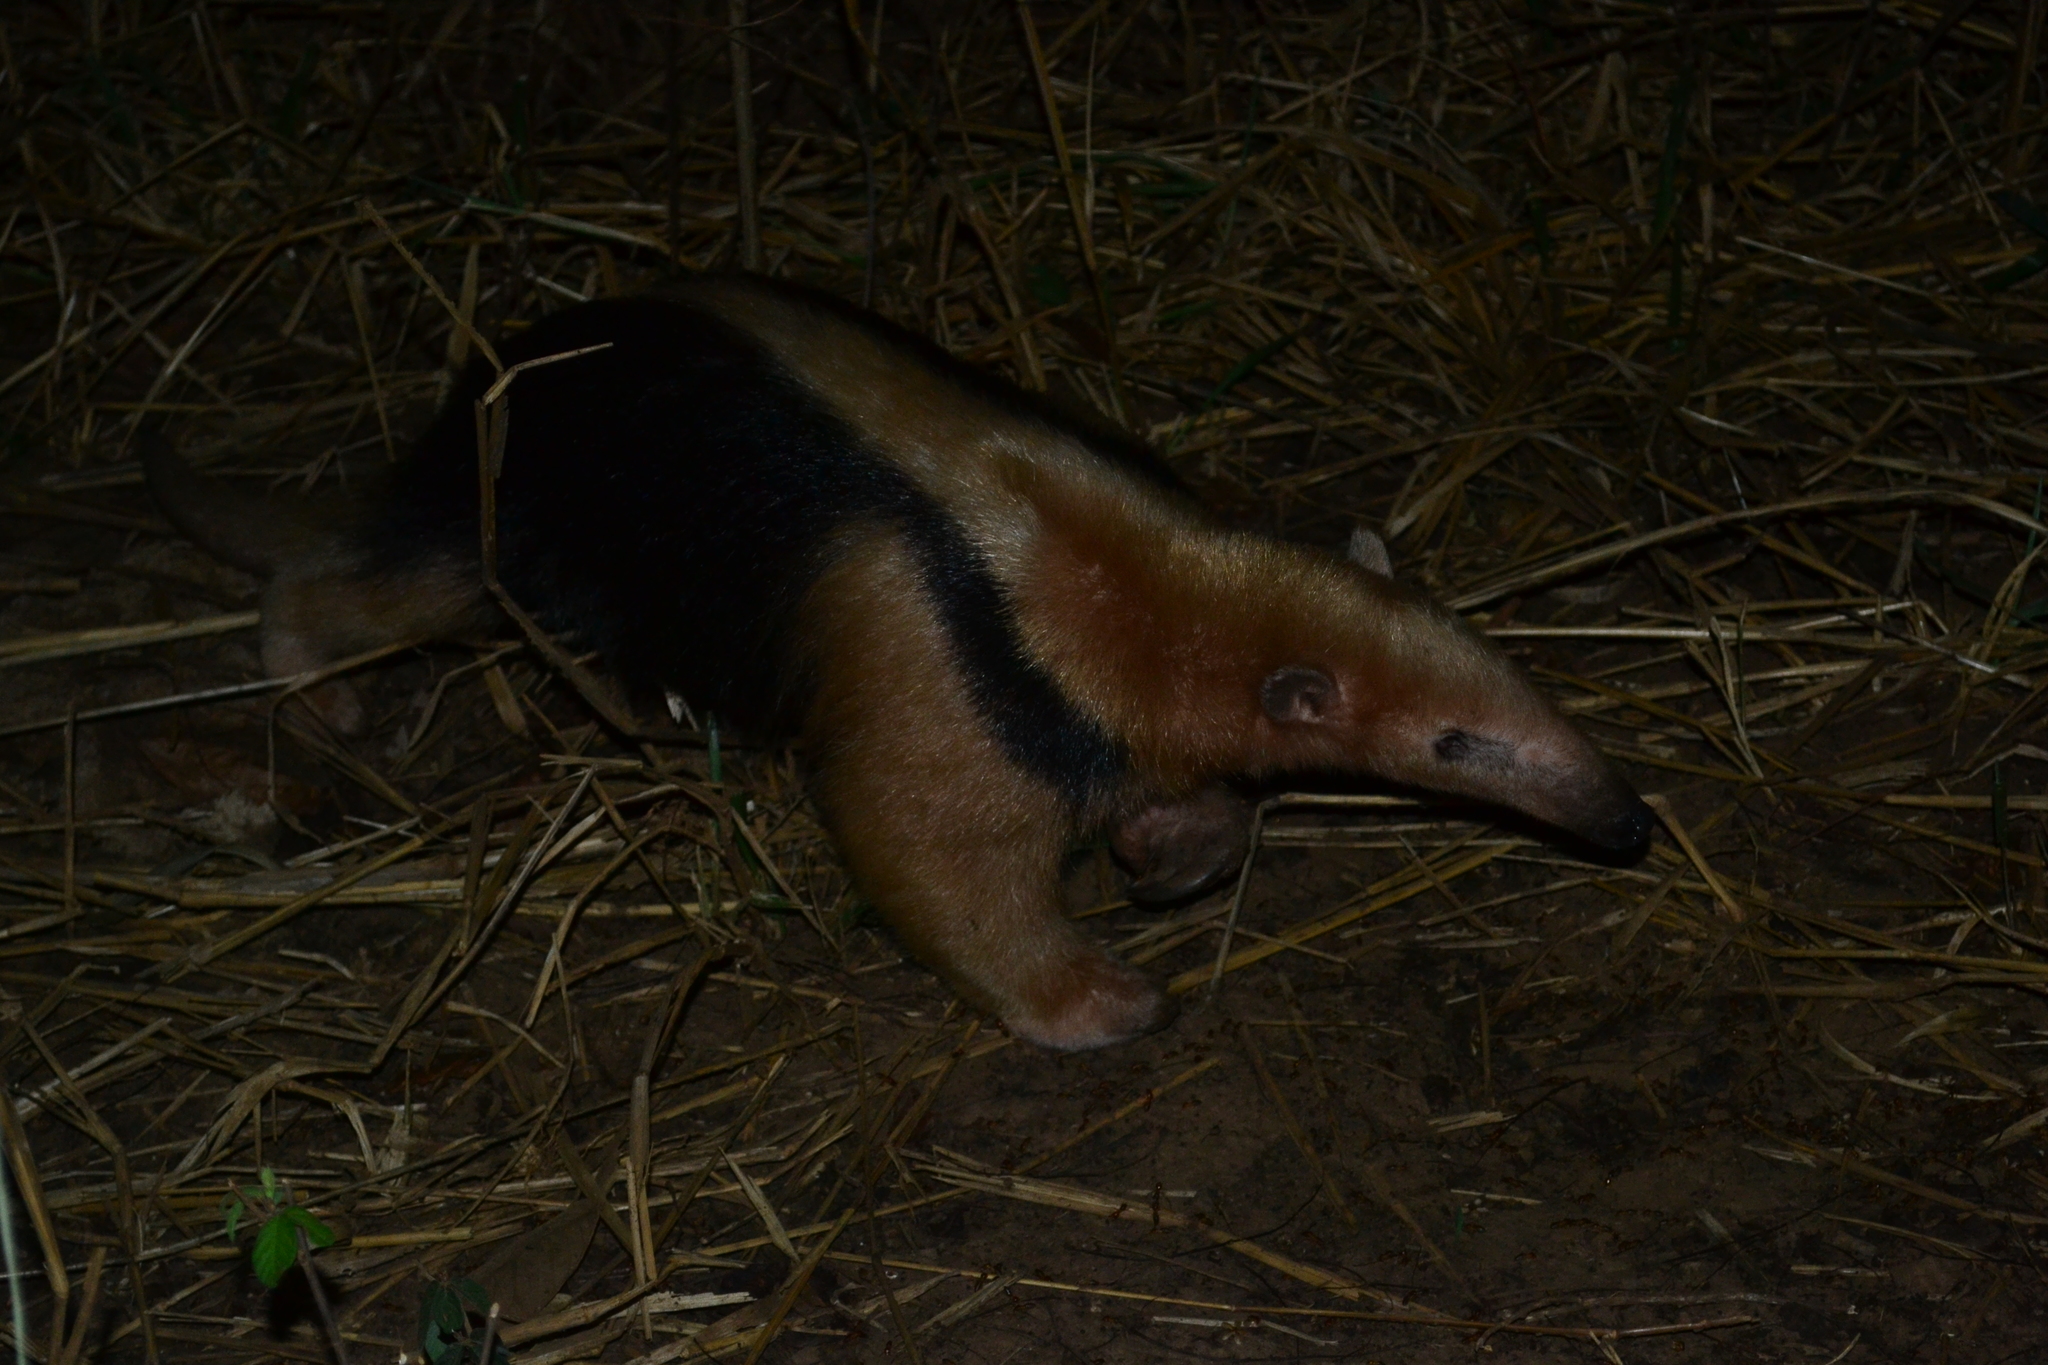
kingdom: Animalia
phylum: Chordata
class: Mammalia
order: Pilosa
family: Myrmecophagidae
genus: Tamandua
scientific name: Tamandua tetradactyla
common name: Southern tamandua
